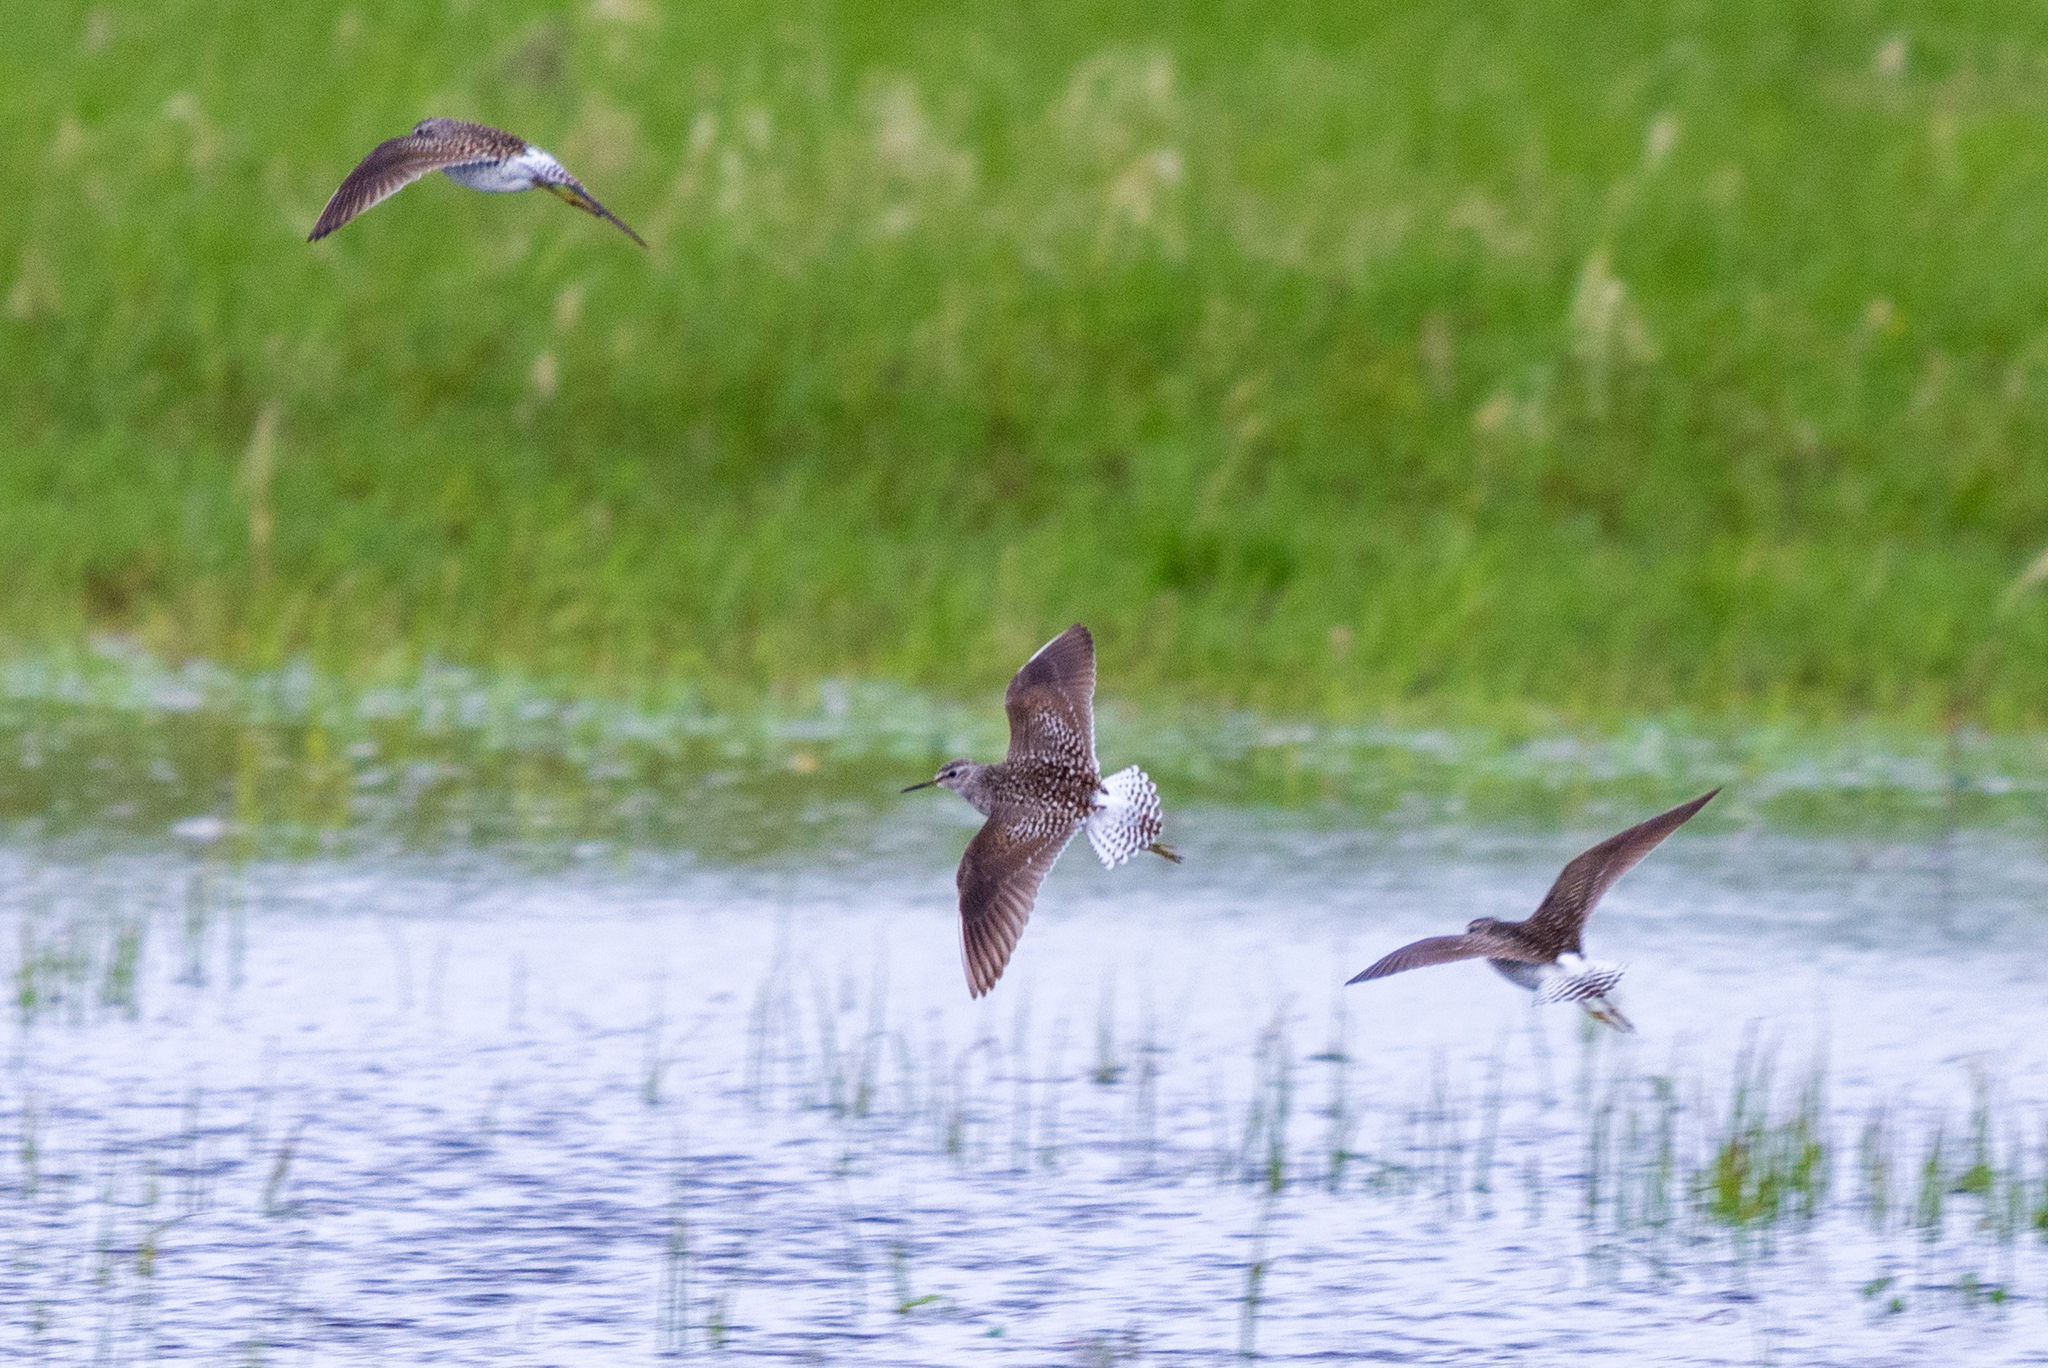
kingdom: Animalia
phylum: Chordata
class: Aves
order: Charadriiformes
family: Scolopacidae
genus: Tringa
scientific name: Tringa glareola
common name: Wood sandpiper
